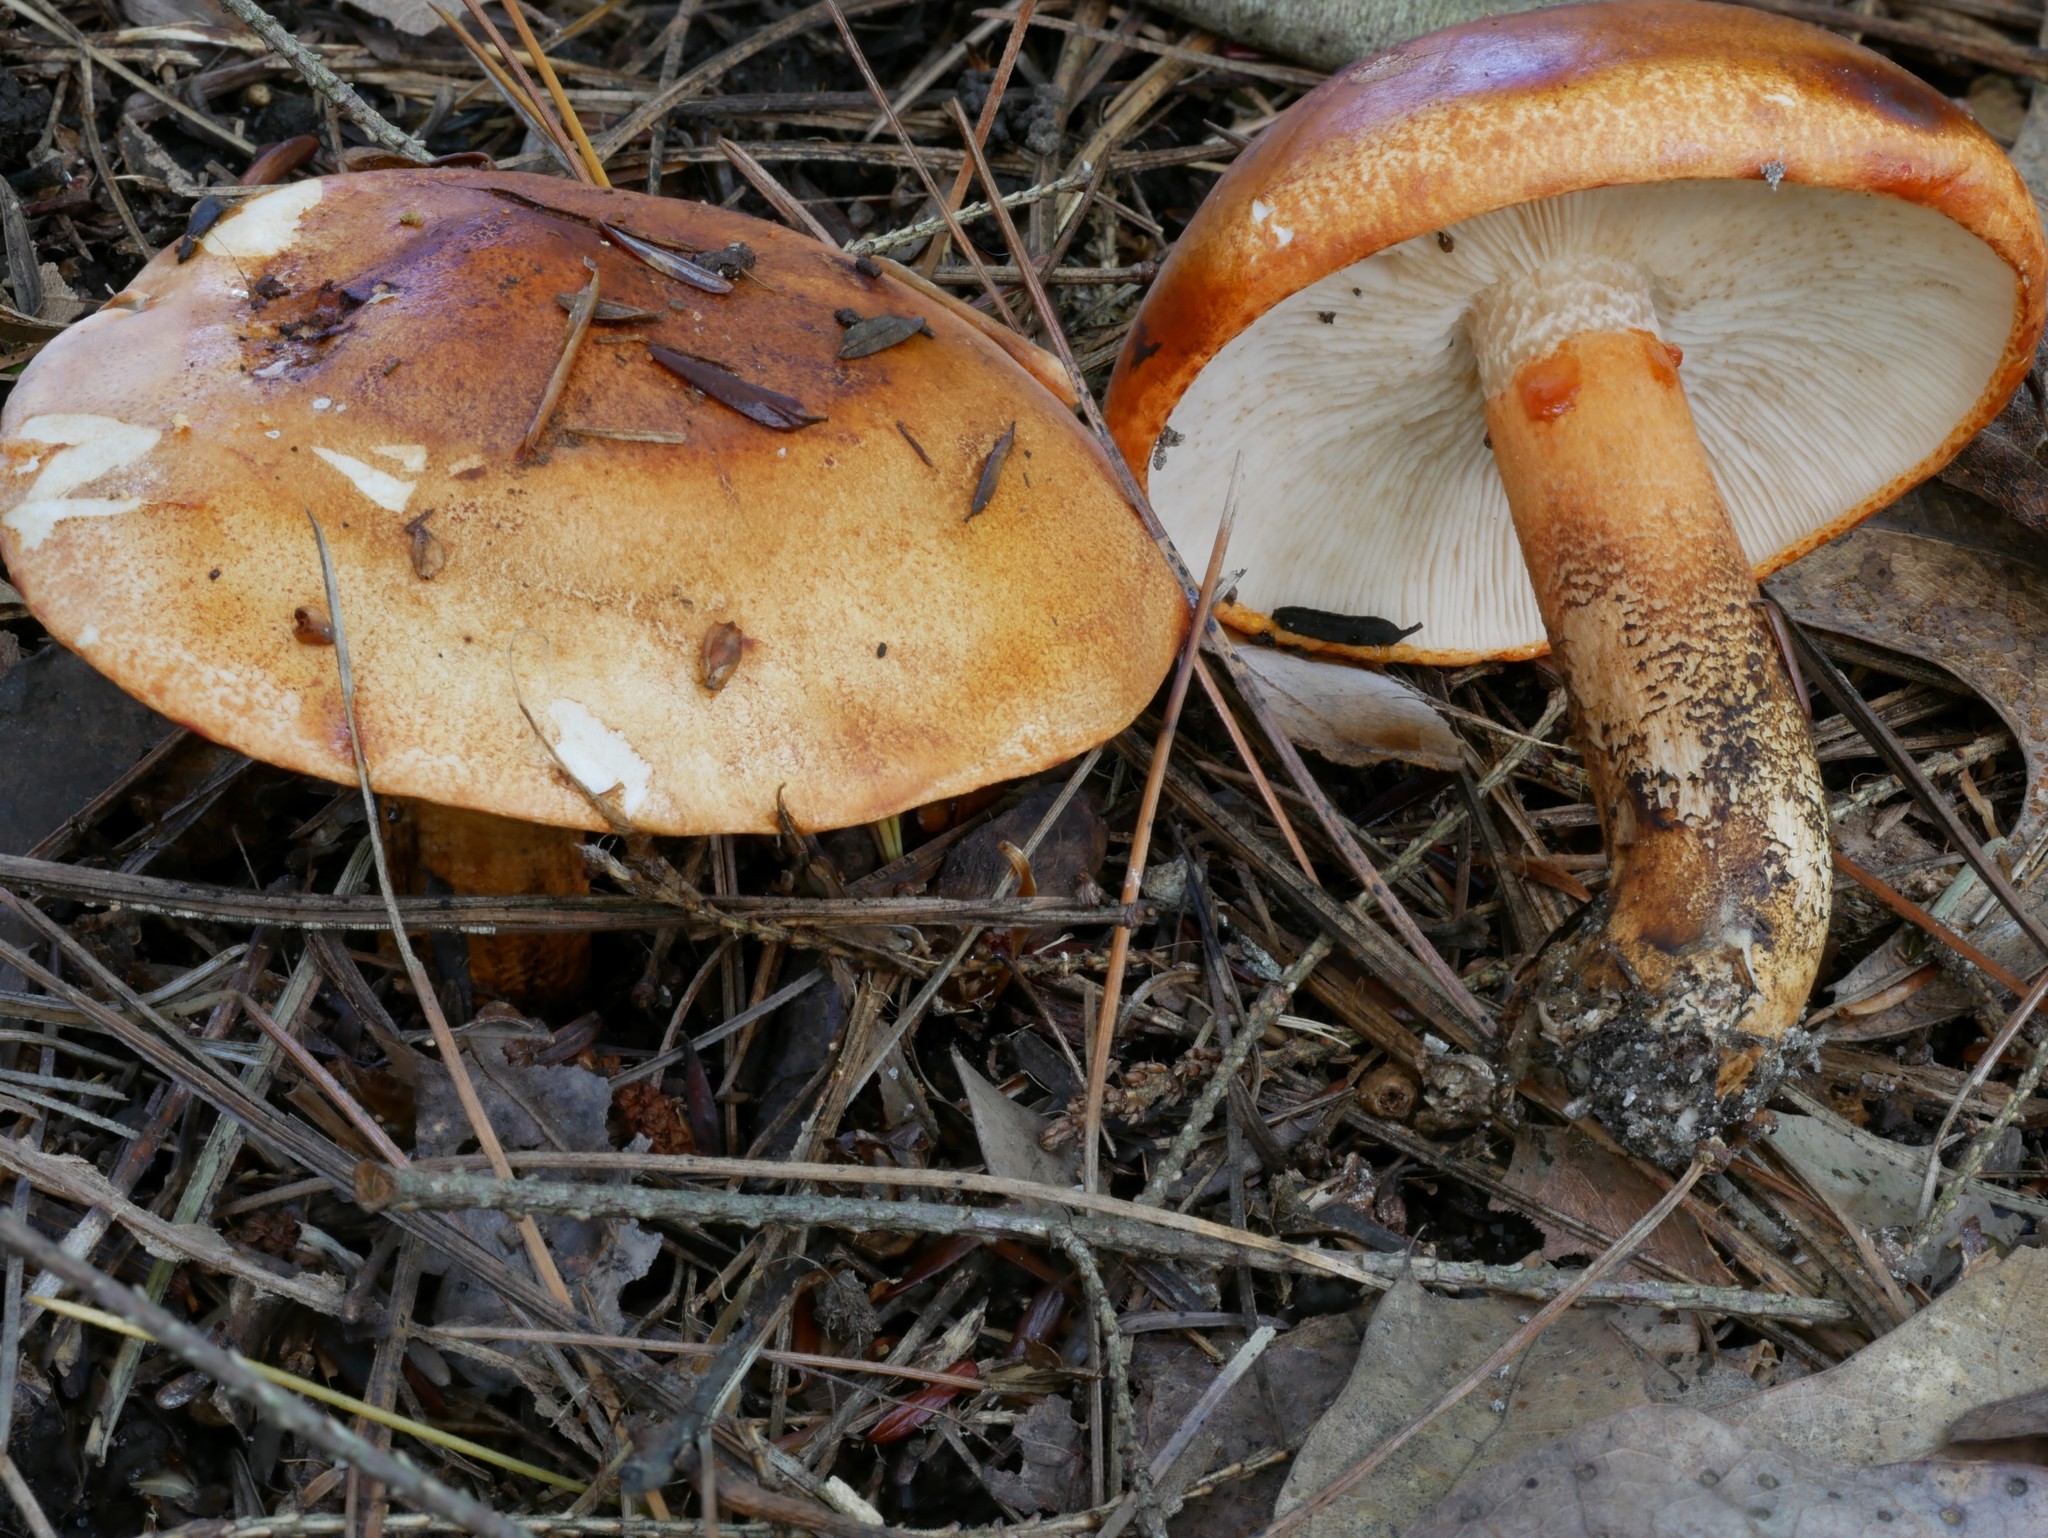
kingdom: Fungi
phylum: Basidiomycota
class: Agaricomycetes
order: Agaricales
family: Tricholomataceae
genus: Tricholoma
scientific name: Tricholoma aurantium
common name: Orange knight
